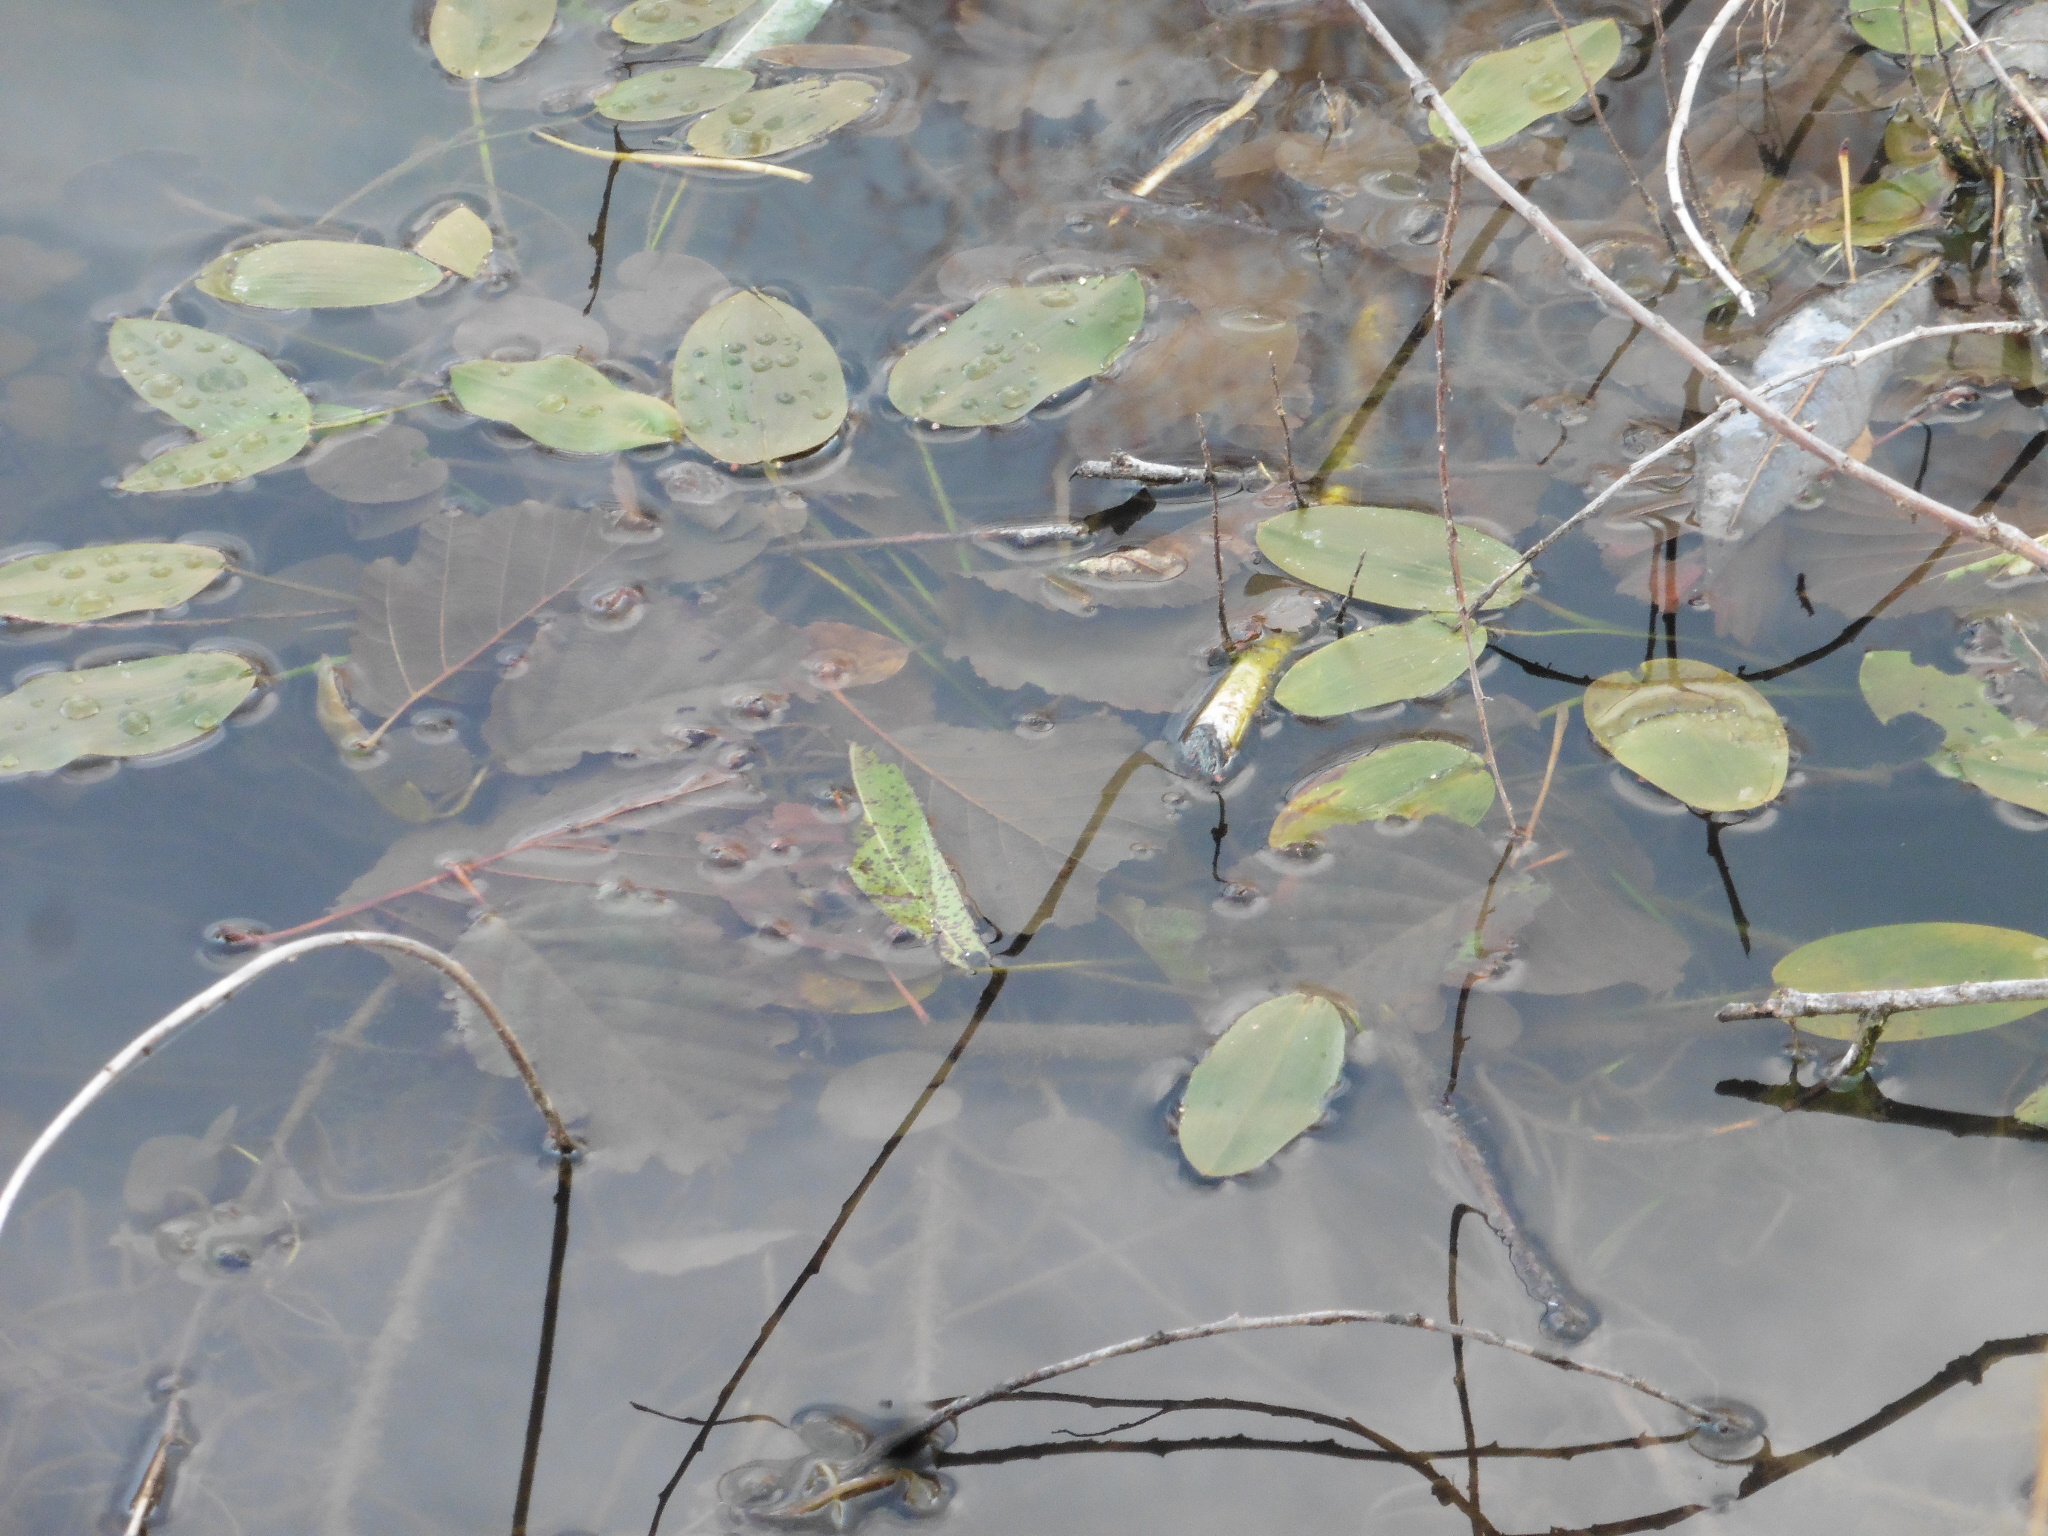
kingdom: Plantae
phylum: Tracheophyta
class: Liliopsida
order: Alismatales
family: Potamogetonaceae
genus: Potamogeton
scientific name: Potamogeton natans
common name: Broad-leaved pondweed
